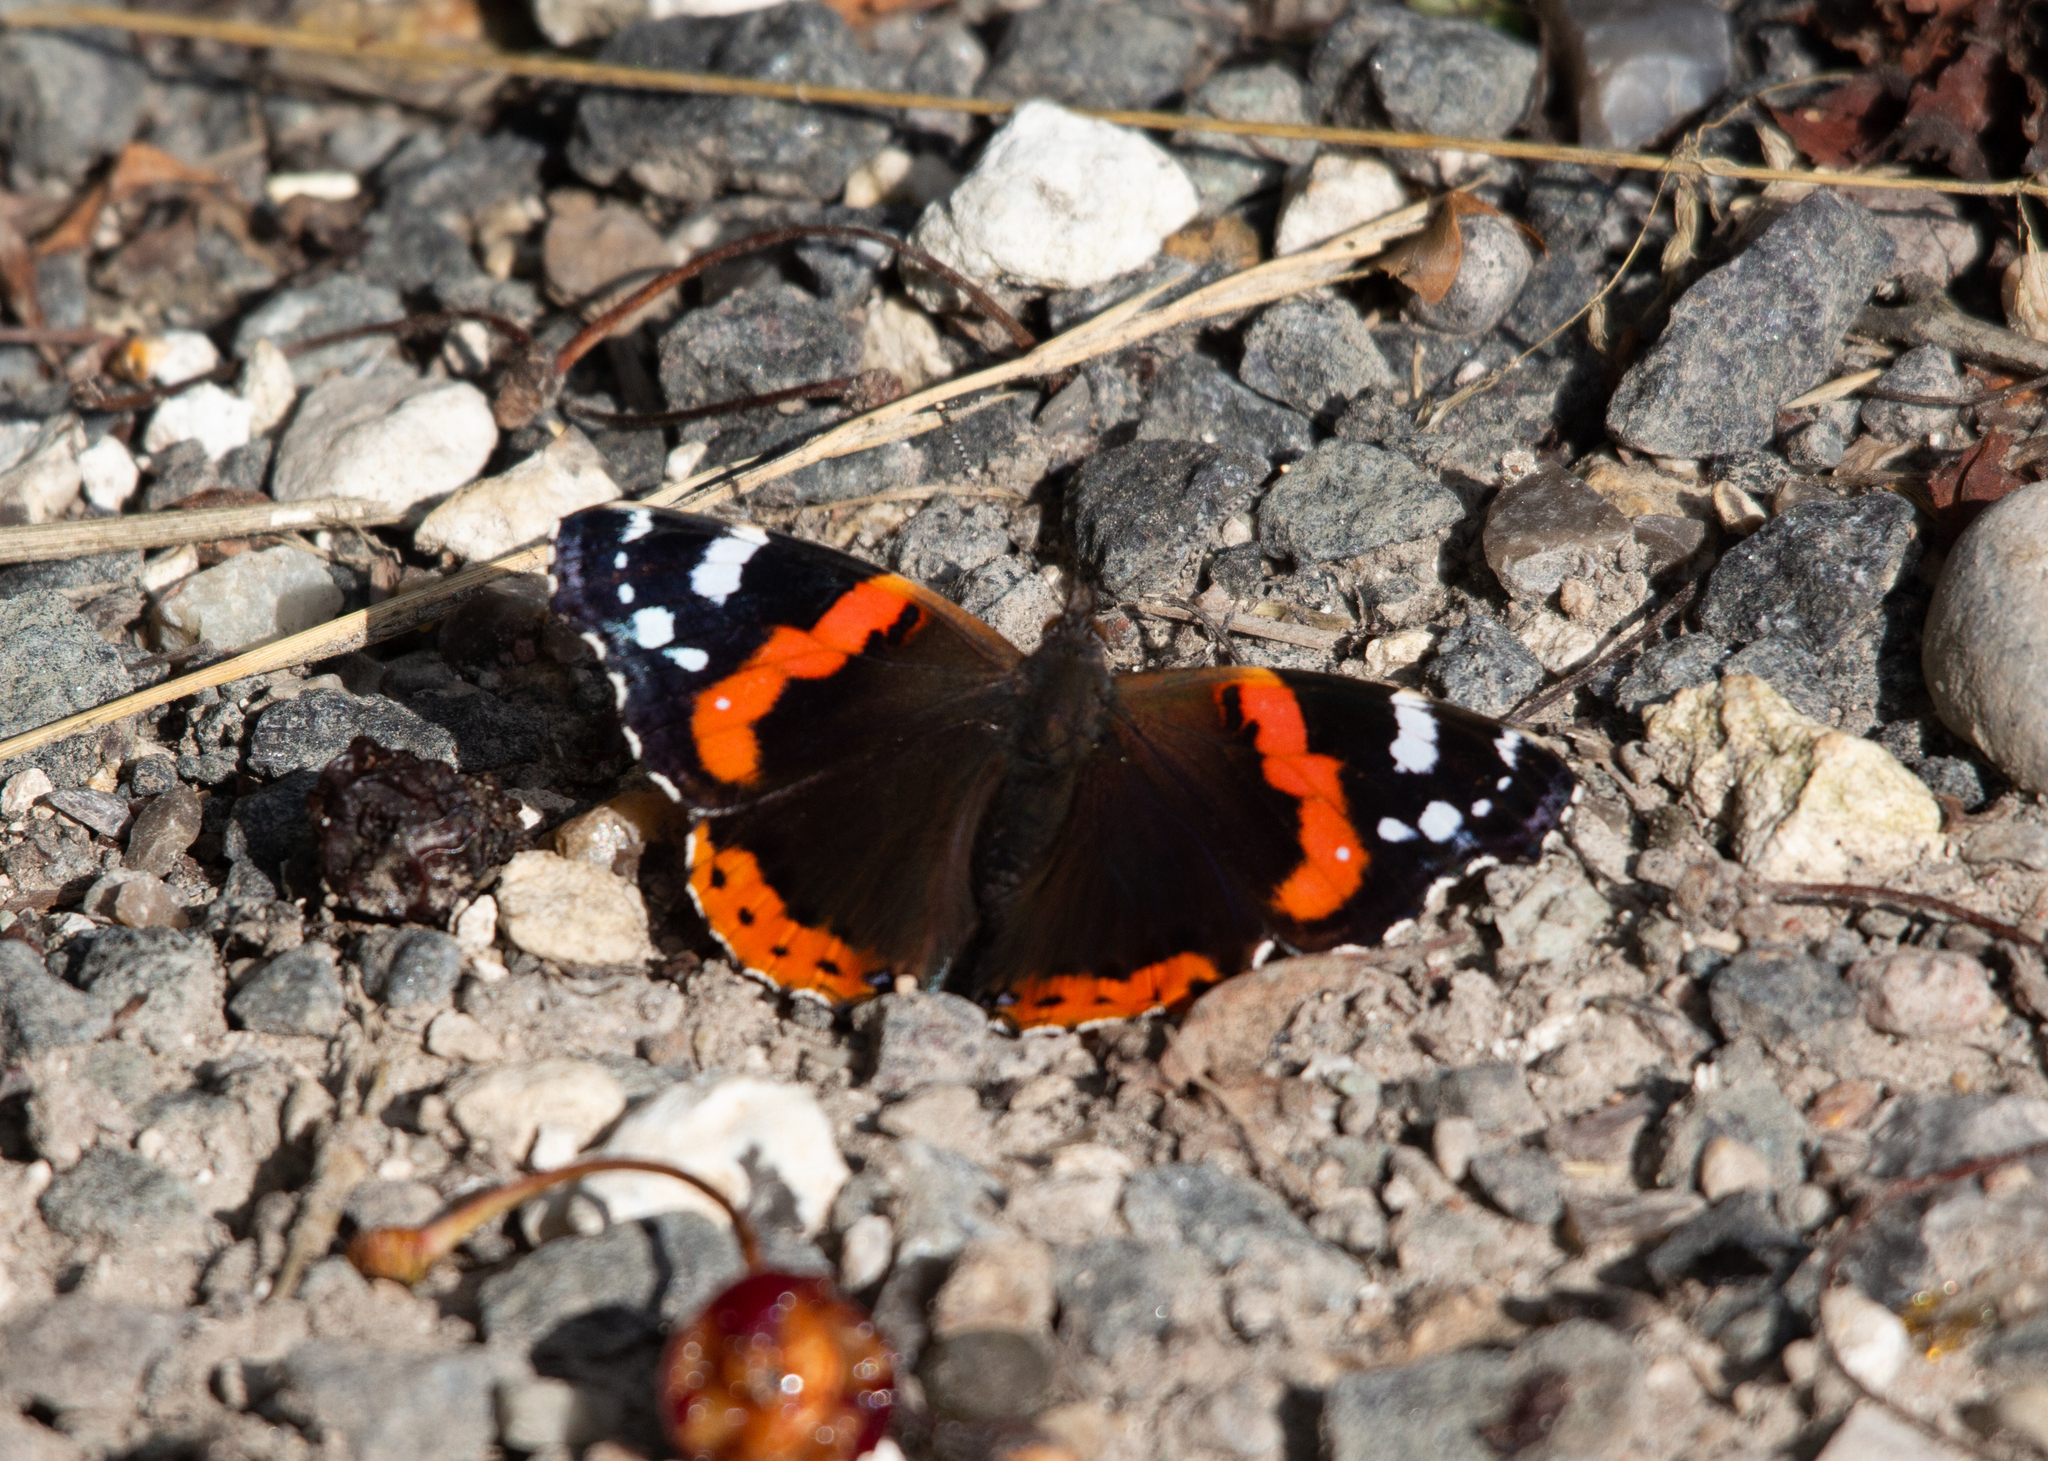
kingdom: Animalia
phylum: Arthropoda
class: Insecta
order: Lepidoptera
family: Nymphalidae
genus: Vanessa
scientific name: Vanessa atalanta
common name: Red admiral
